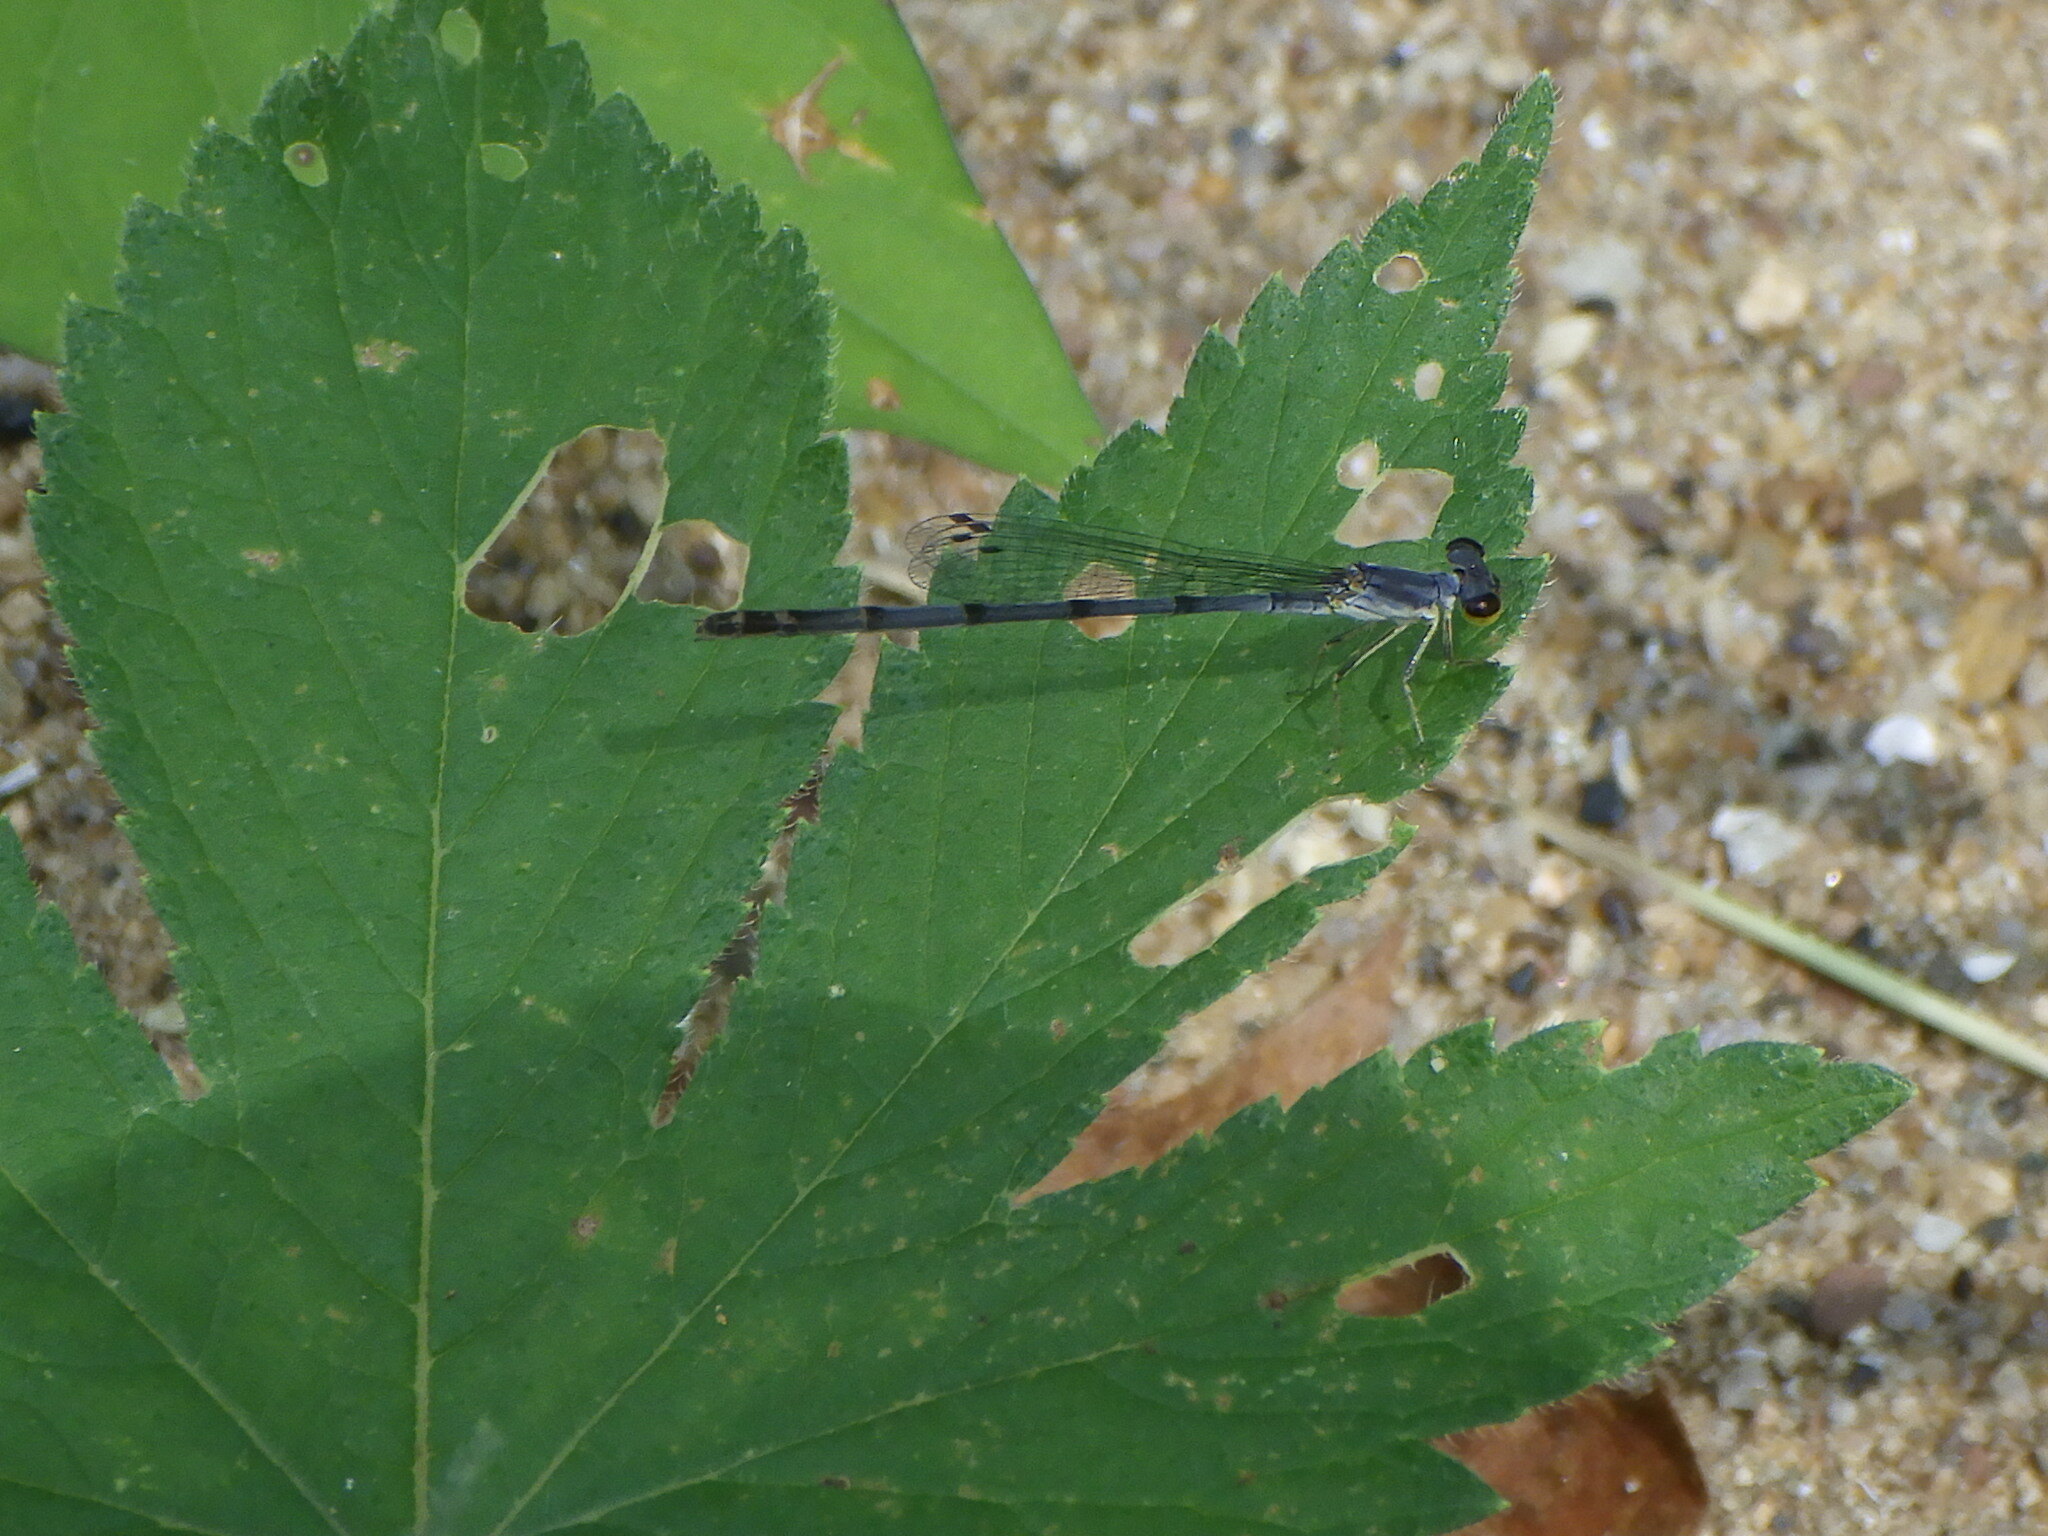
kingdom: Animalia
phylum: Arthropoda
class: Insecta
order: Odonata
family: Coenagrionidae
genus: Ischnura
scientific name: Ischnura posita
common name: Fragile forktail
